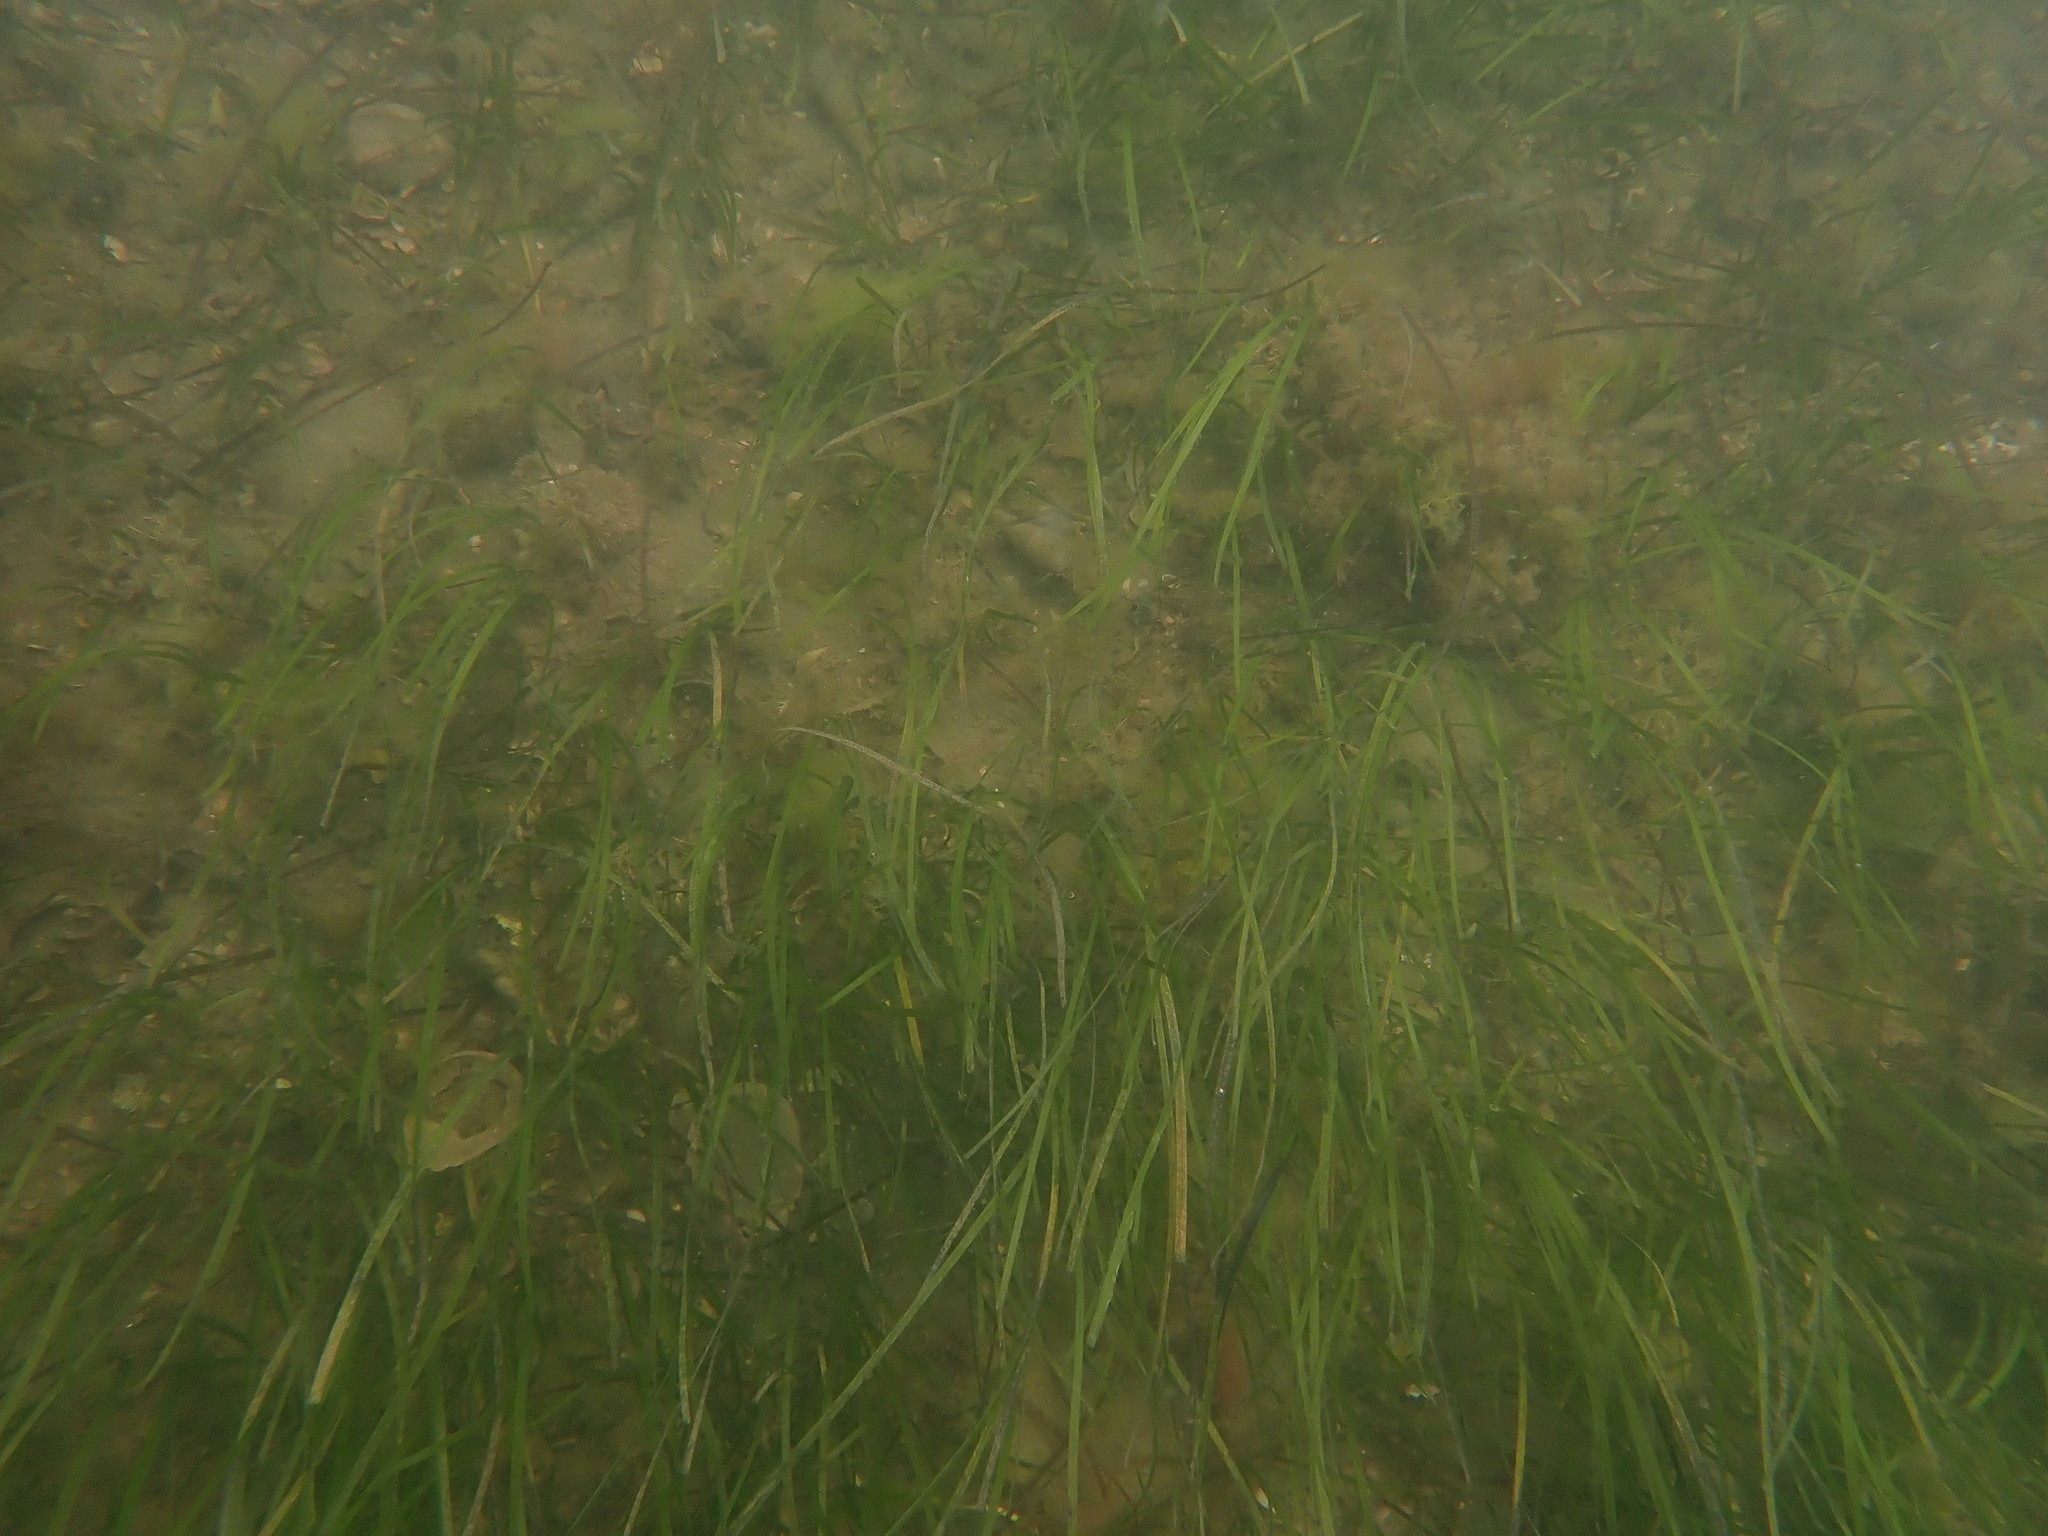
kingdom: Plantae
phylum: Tracheophyta
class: Liliopsida
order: Alismatales
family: Zosteraceae
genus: Zostera
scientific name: Zostera novazelandica
